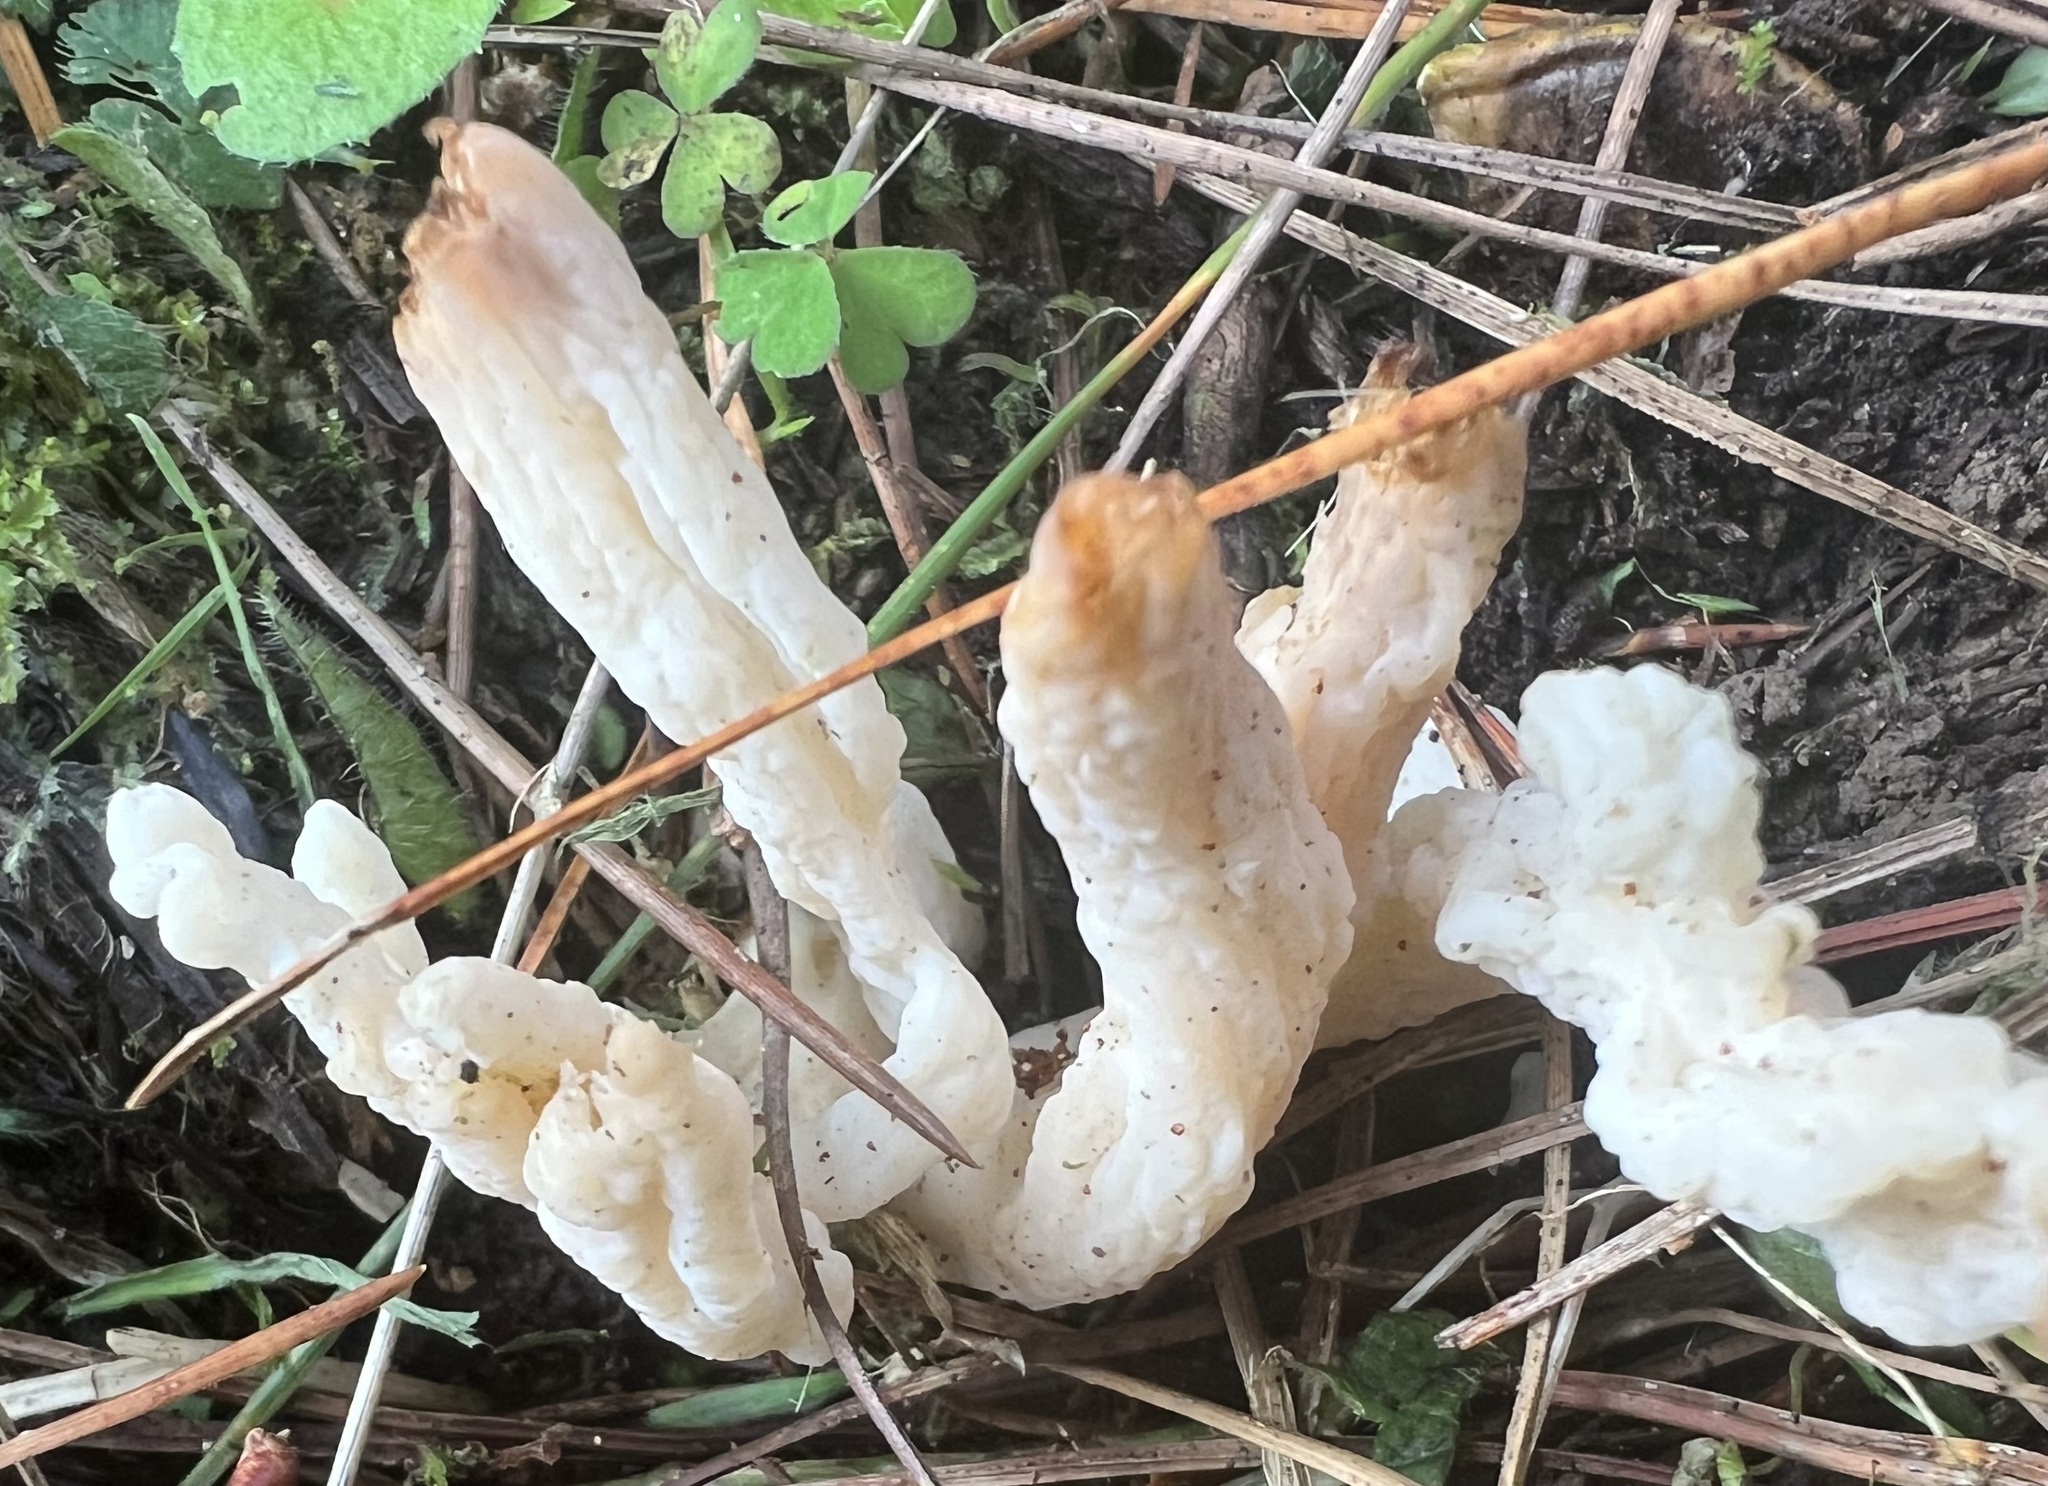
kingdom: Fungi
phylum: Basidiomycota
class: Agaricomycetes
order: Cantharellales
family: Hydnaceae
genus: Clavulina
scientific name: Clavulina rugosa
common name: Wrinkled club
